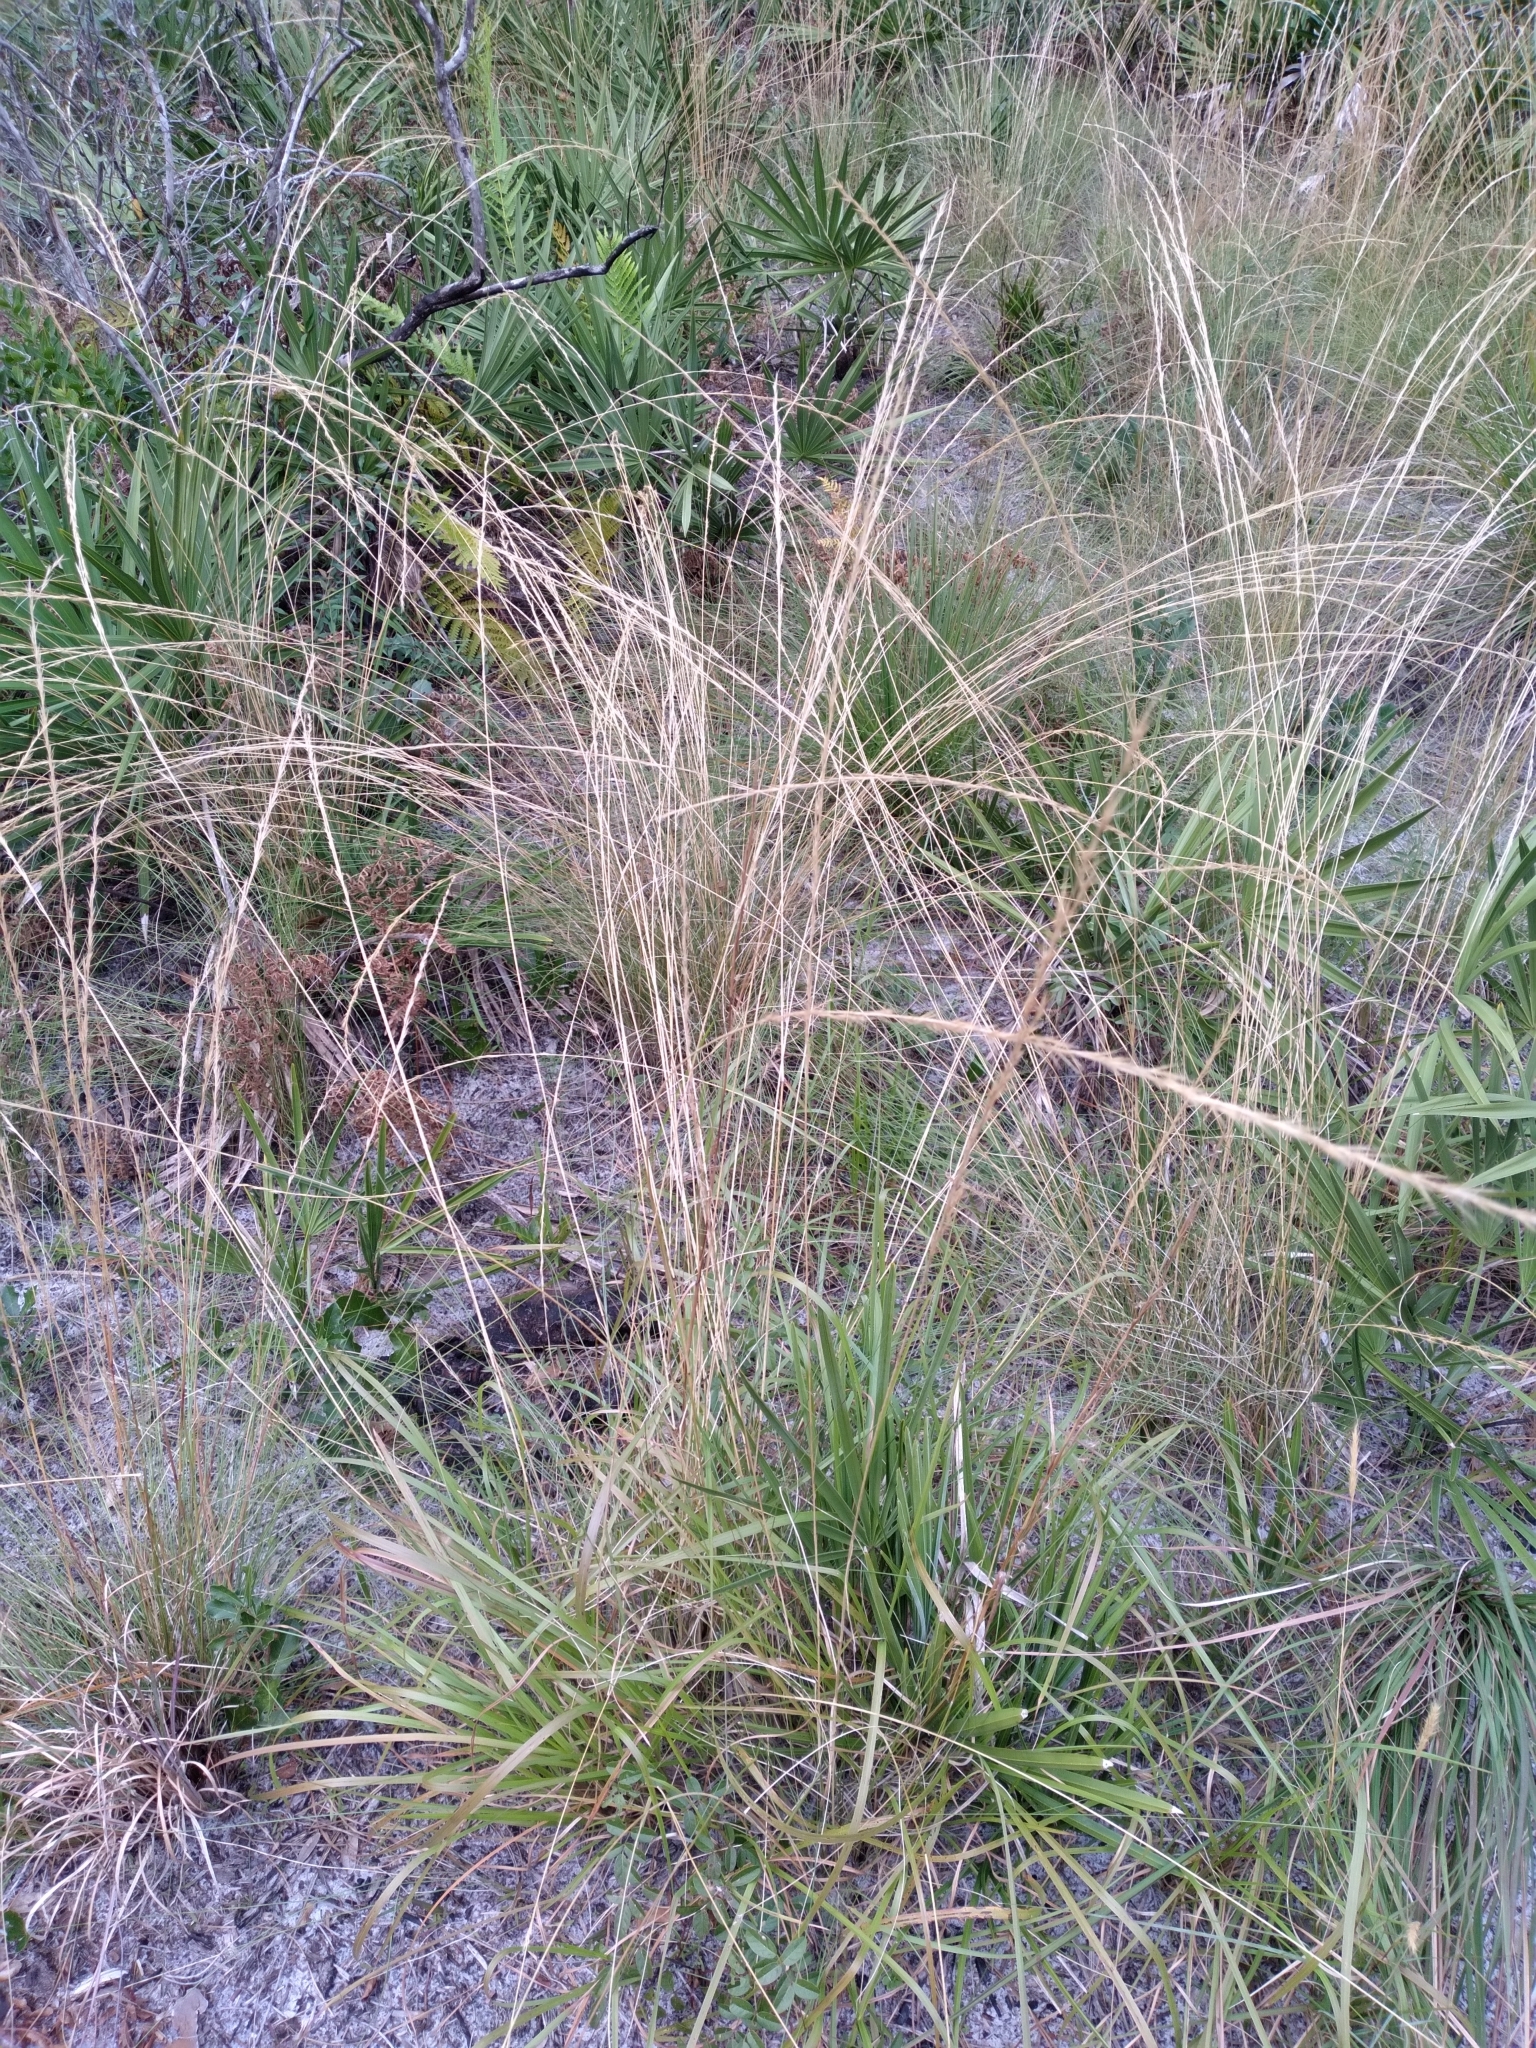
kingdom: Plantae
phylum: Tracheophyta
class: Liliopsida
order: Poales
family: Poaceae
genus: Aristida
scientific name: Aristida beyrichiana
